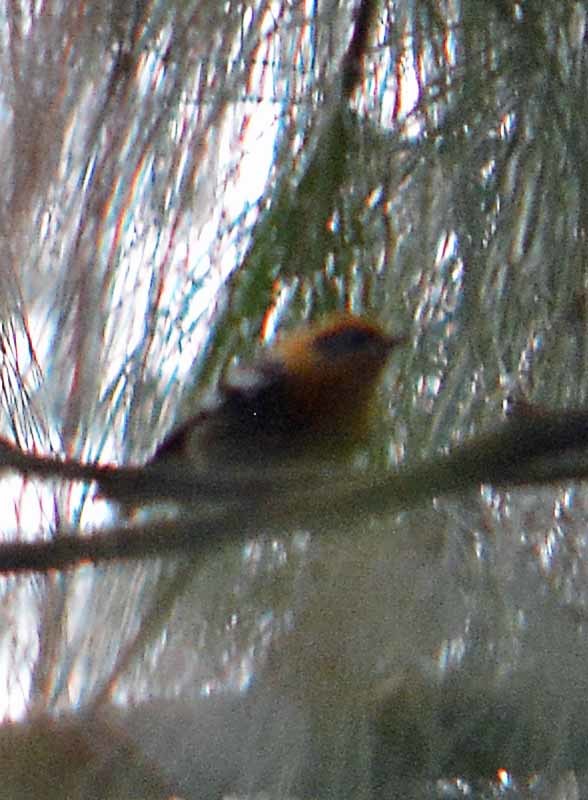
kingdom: Animalia
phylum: Chordata
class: Aves
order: Passeriformes
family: Peucedramidae
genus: Peucedramus
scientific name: Peucedramus taeniatus
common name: Olive warbler
